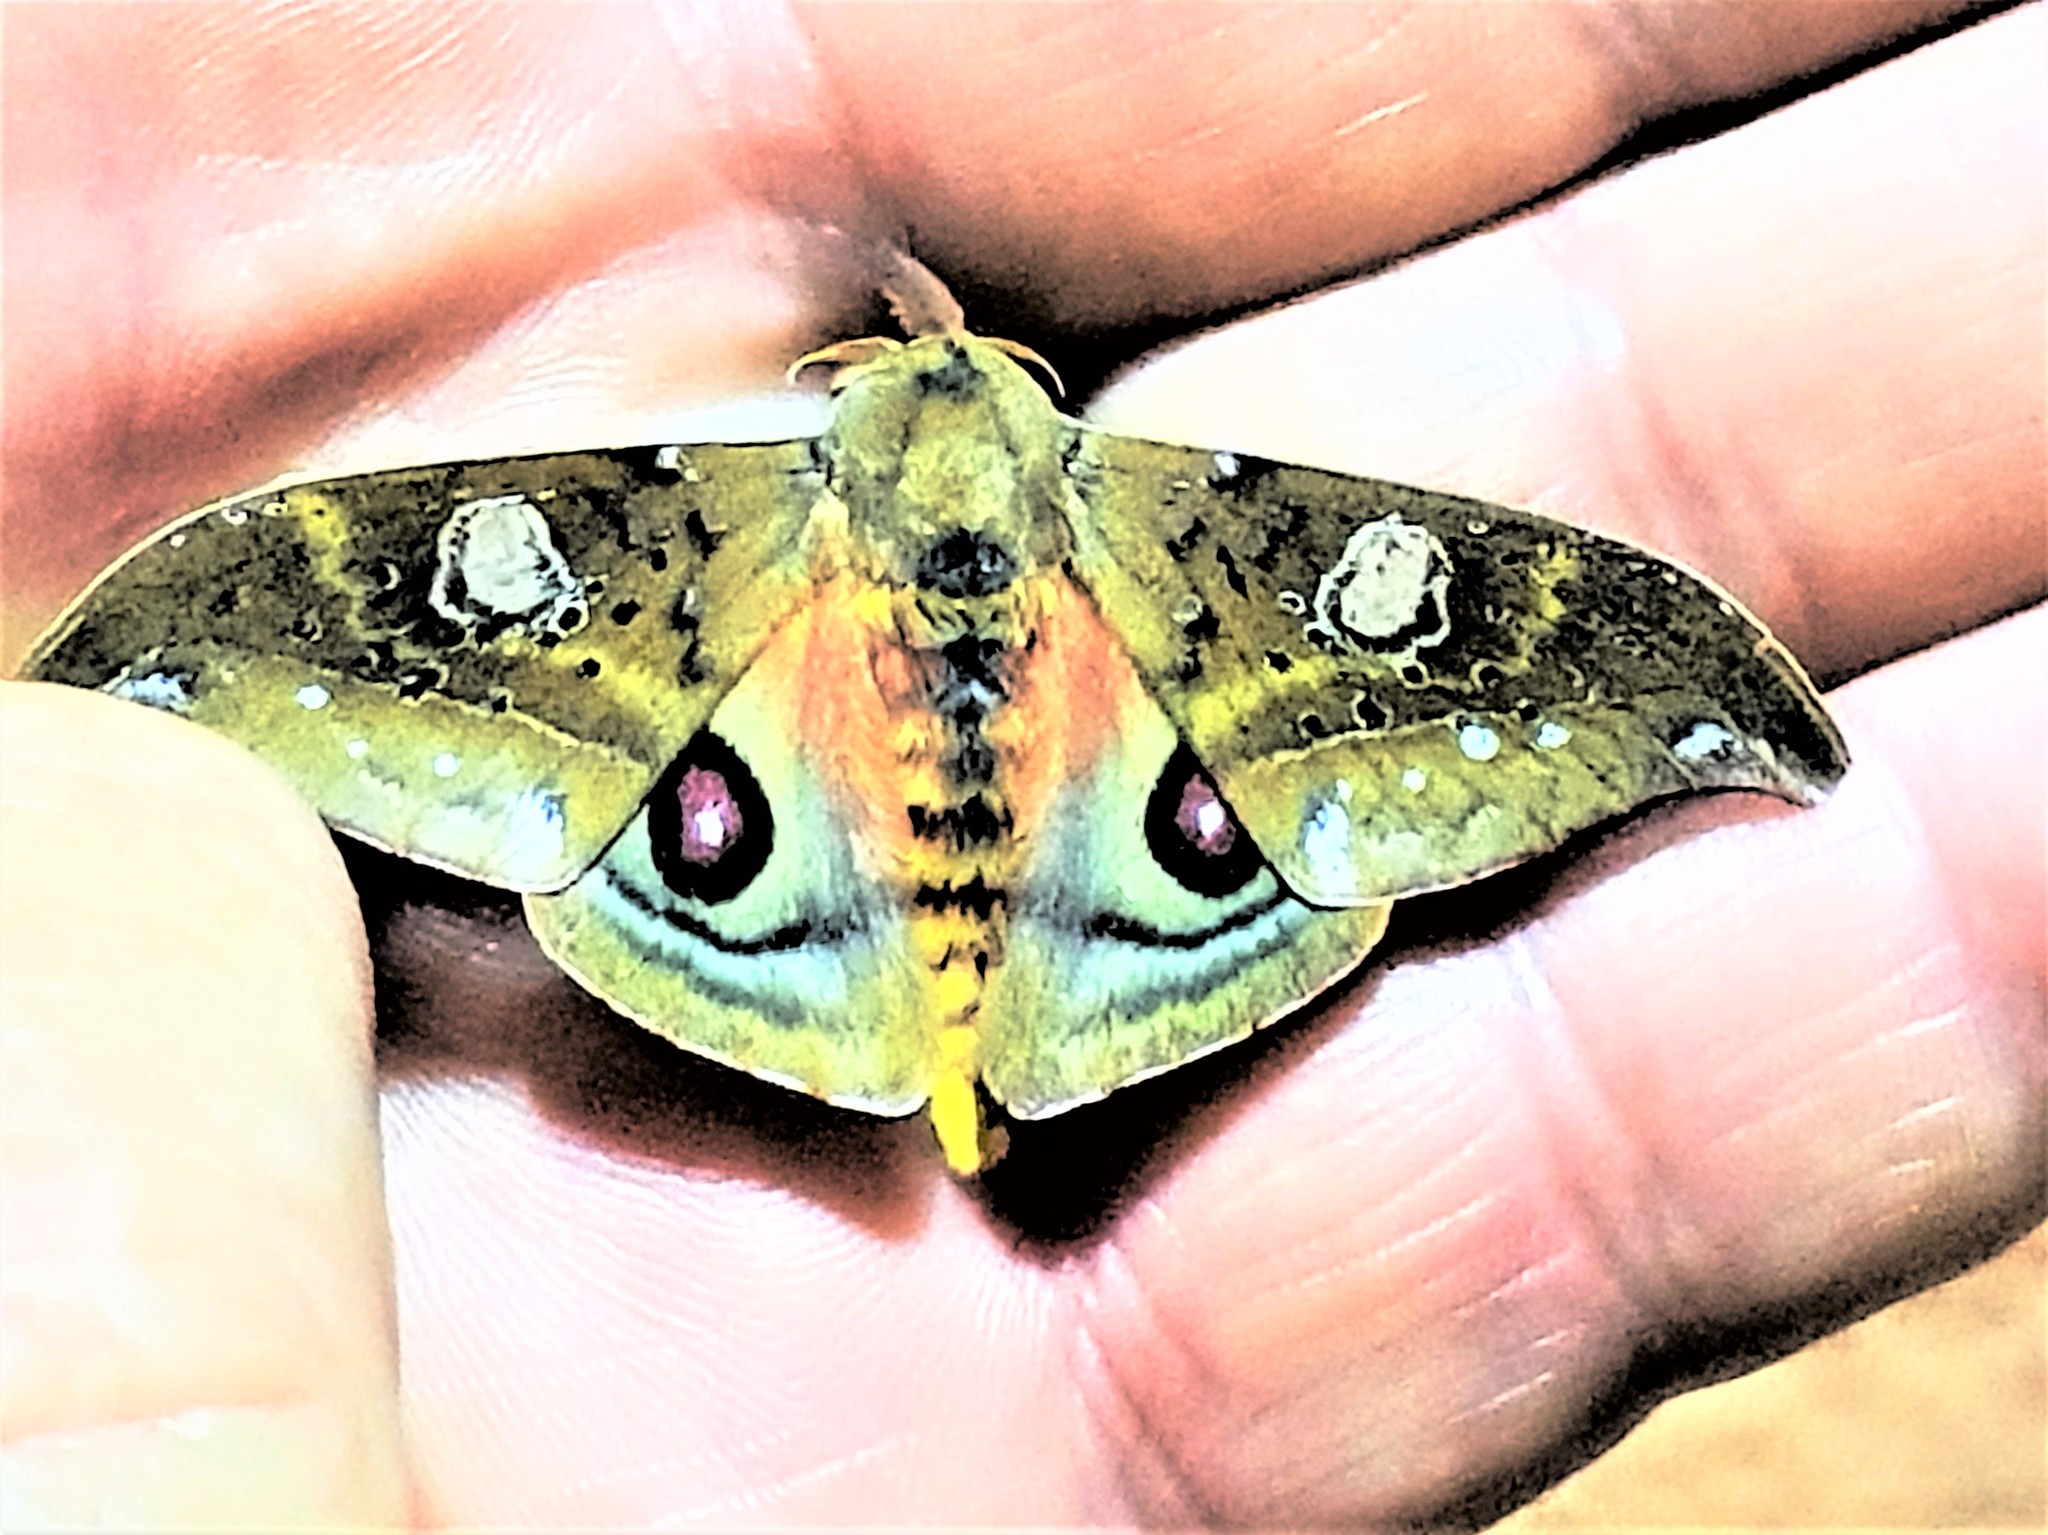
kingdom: Animalia
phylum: Arthropoda
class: Insecta
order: Lepidoptera
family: Saturniidae
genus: Automerina
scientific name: Automerina beneluzi
